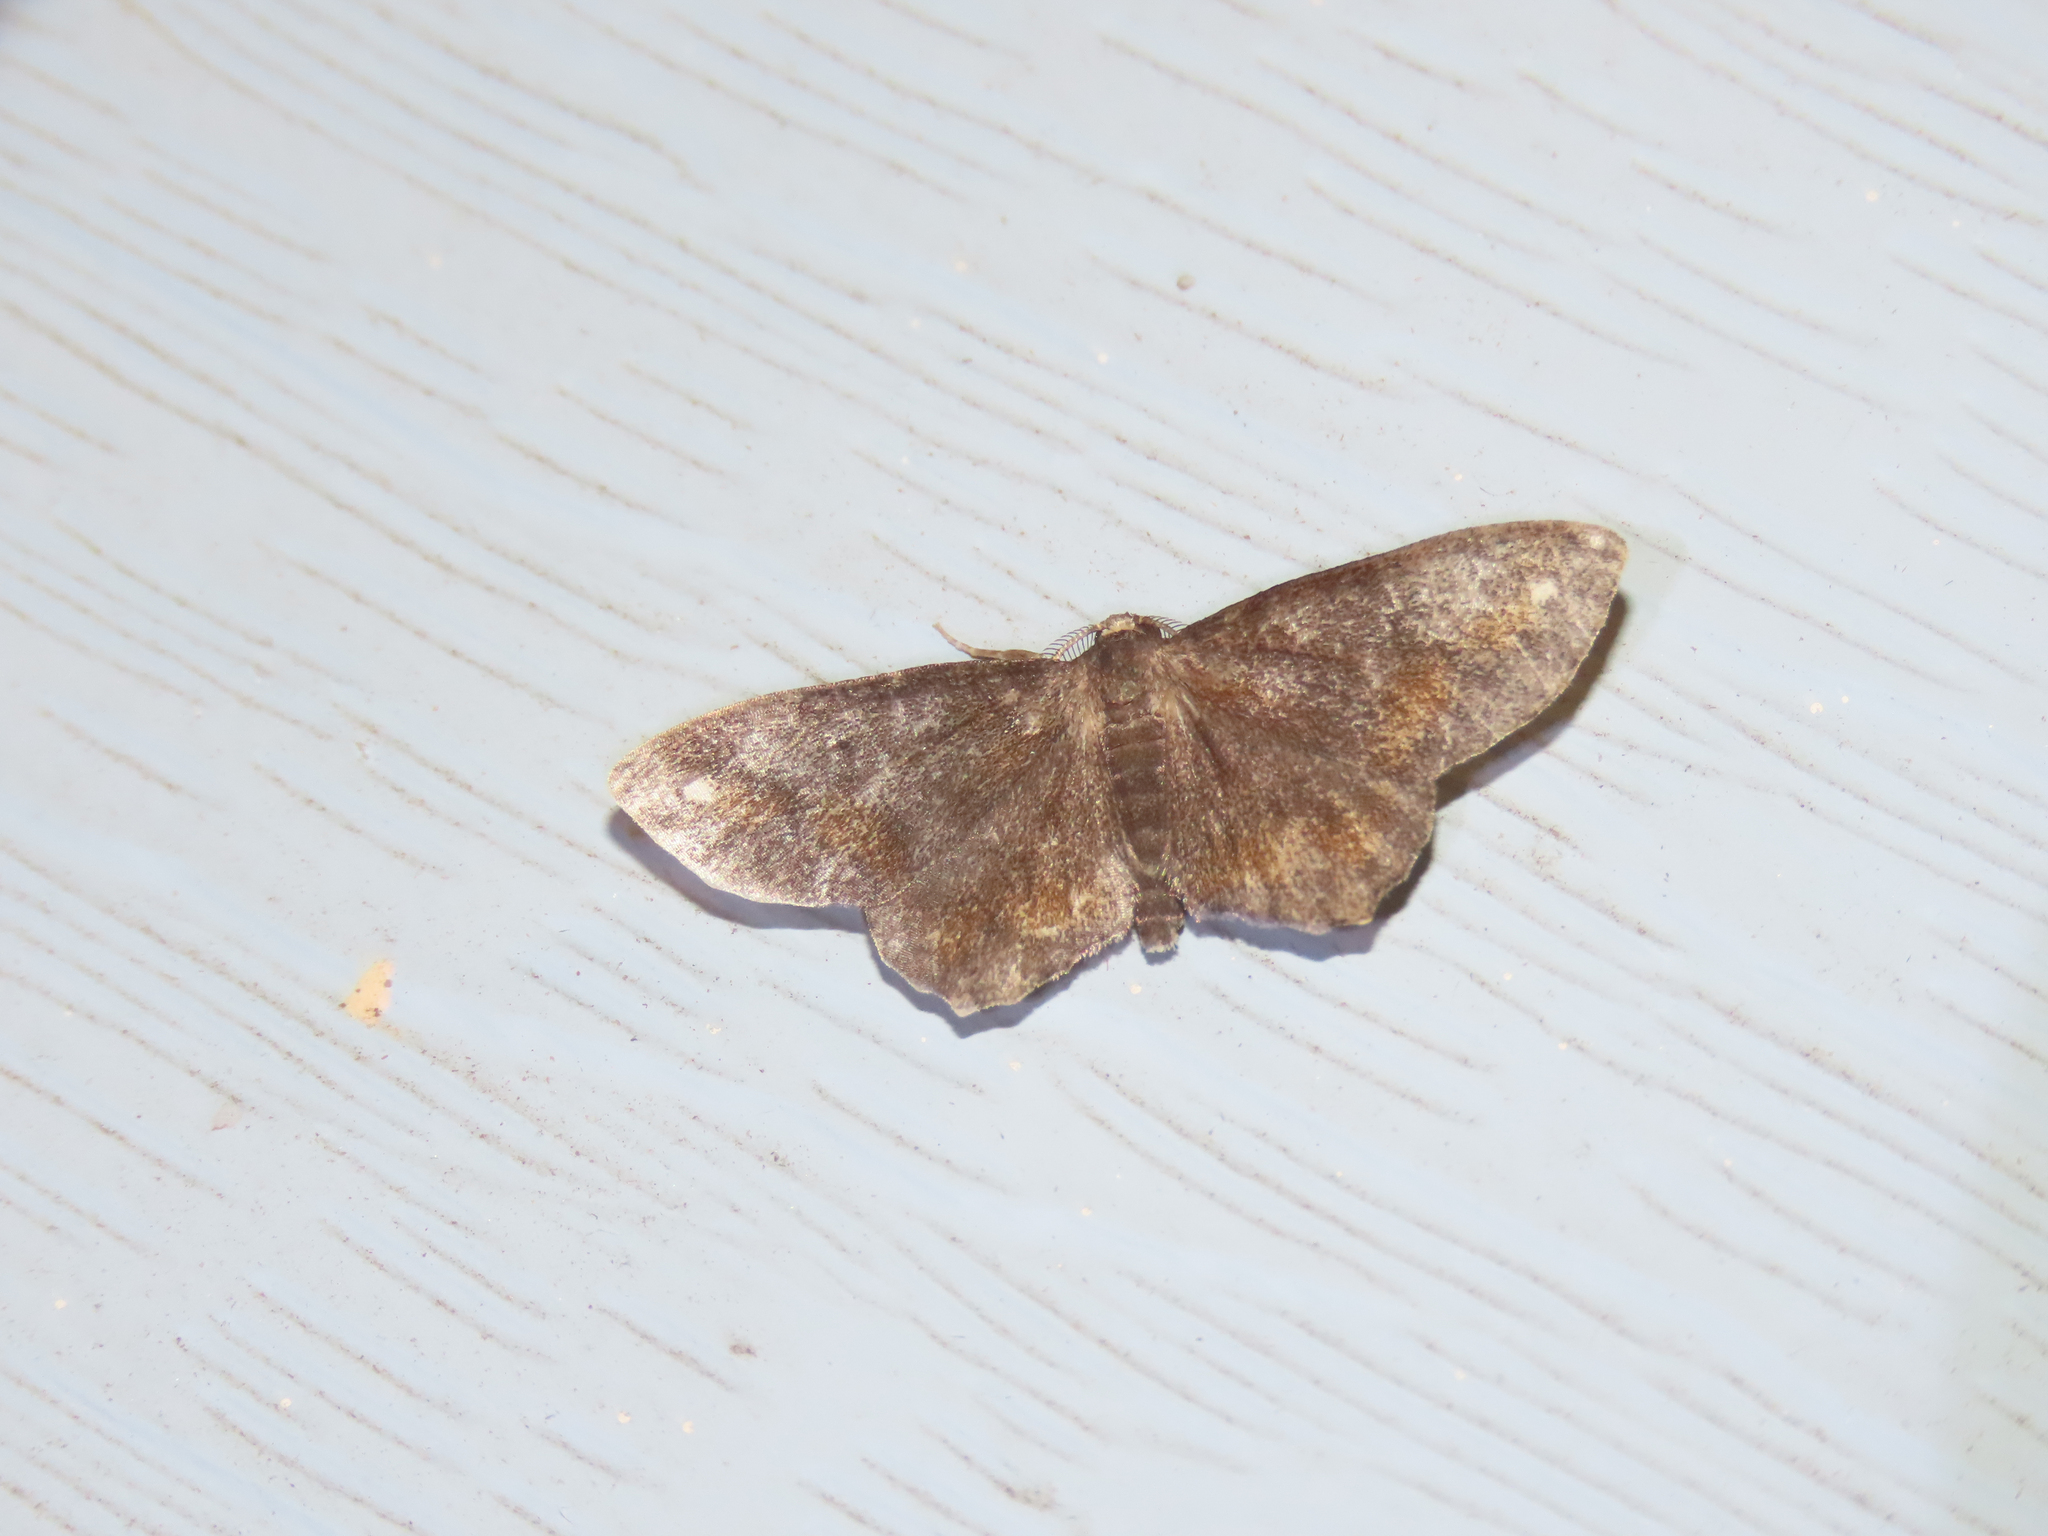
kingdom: Animalia
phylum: Arthropoda
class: Insecta
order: Lepidoptera
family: Geometridae
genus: Hypagyrtis
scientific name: Hypagyrtis unipunctata
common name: One-spotted variant
